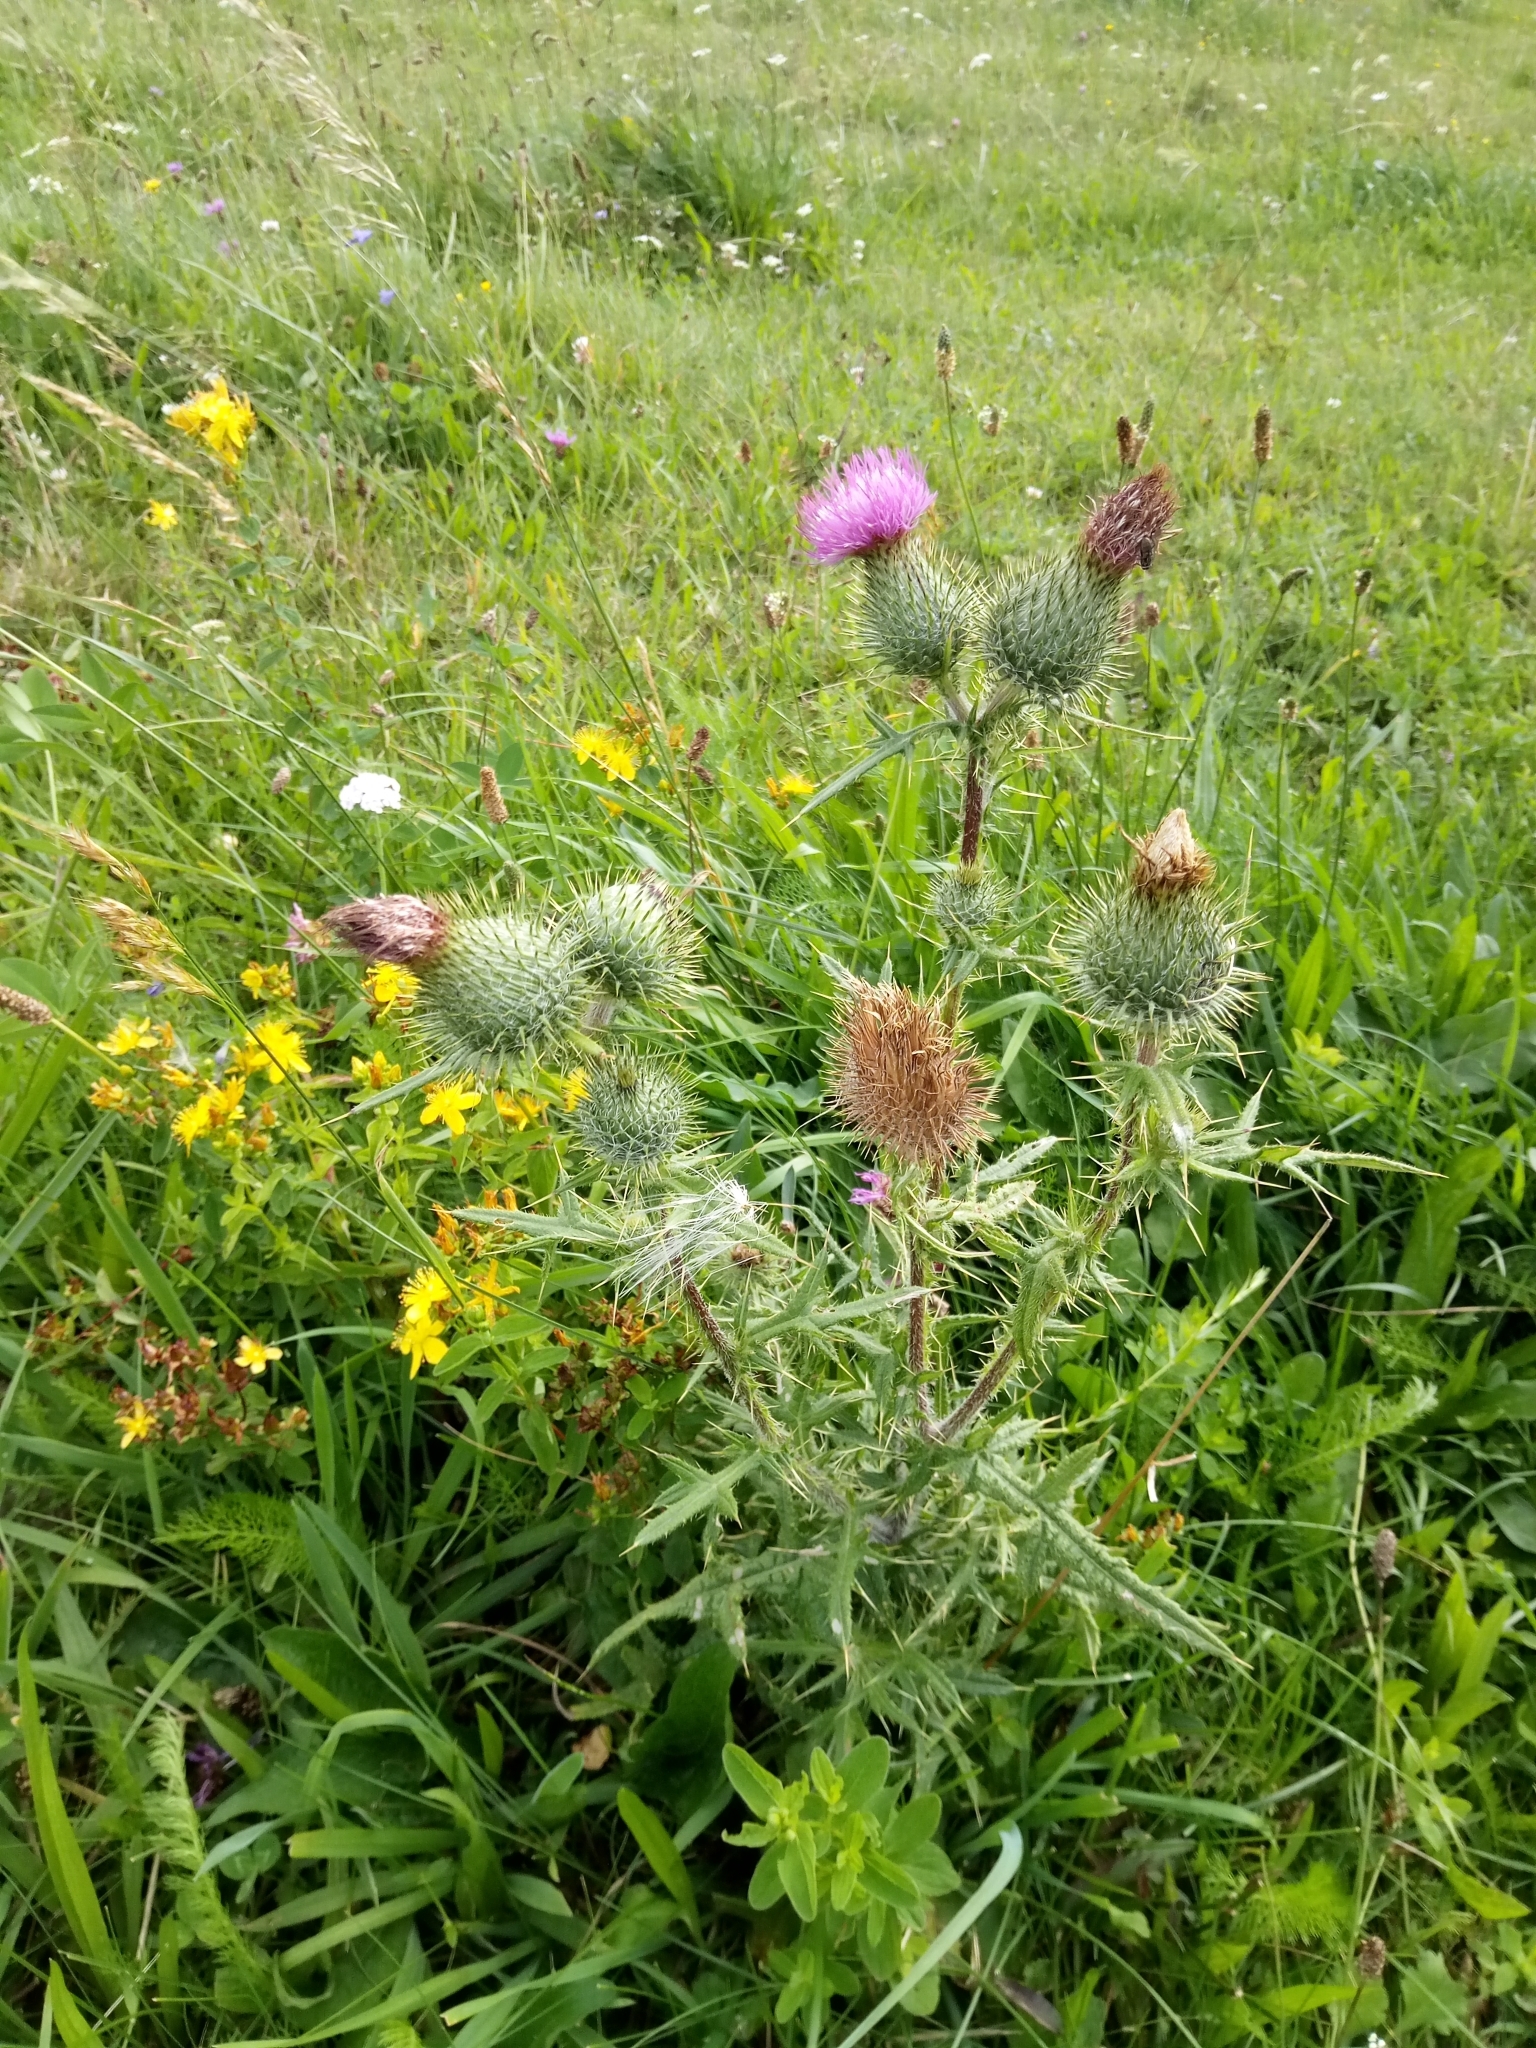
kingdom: Plantae
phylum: Tracheophyta
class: Magnoliopsida
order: Asterales
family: Asteraceae
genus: Cirsium
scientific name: Cirsium vulgare
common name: Bull thistle
